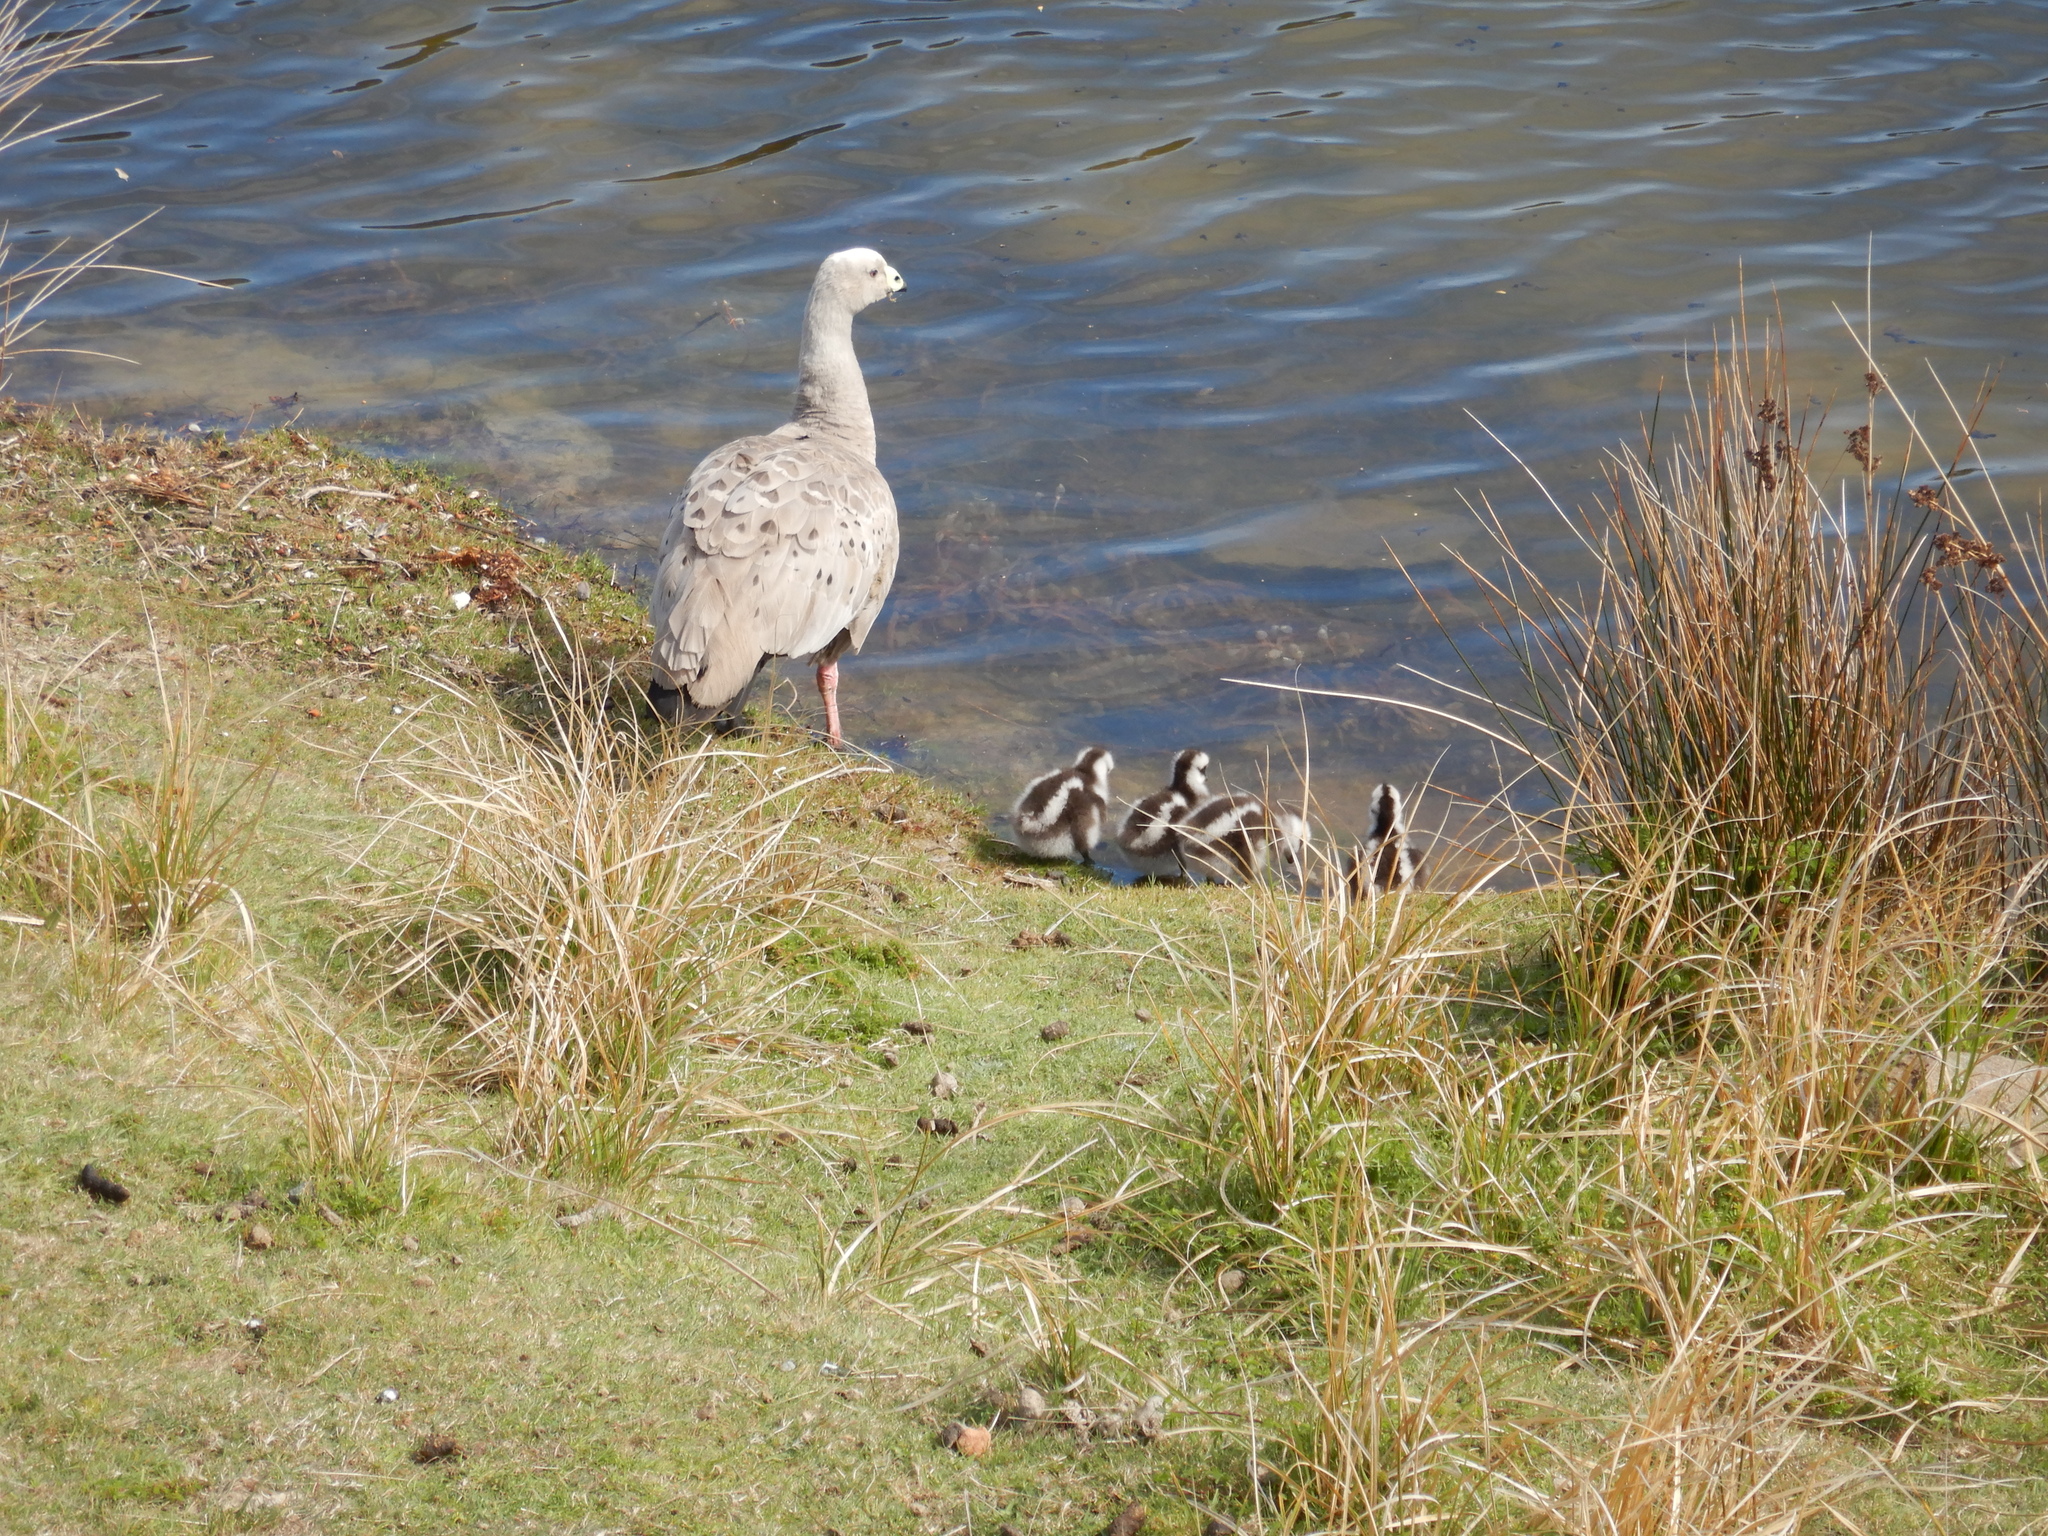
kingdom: Animalia
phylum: Chordata
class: Aves
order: Anseriformes
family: Anatidae
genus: Cereopsis
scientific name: Cereopsis novaehollandiae
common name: Cape barren goose
